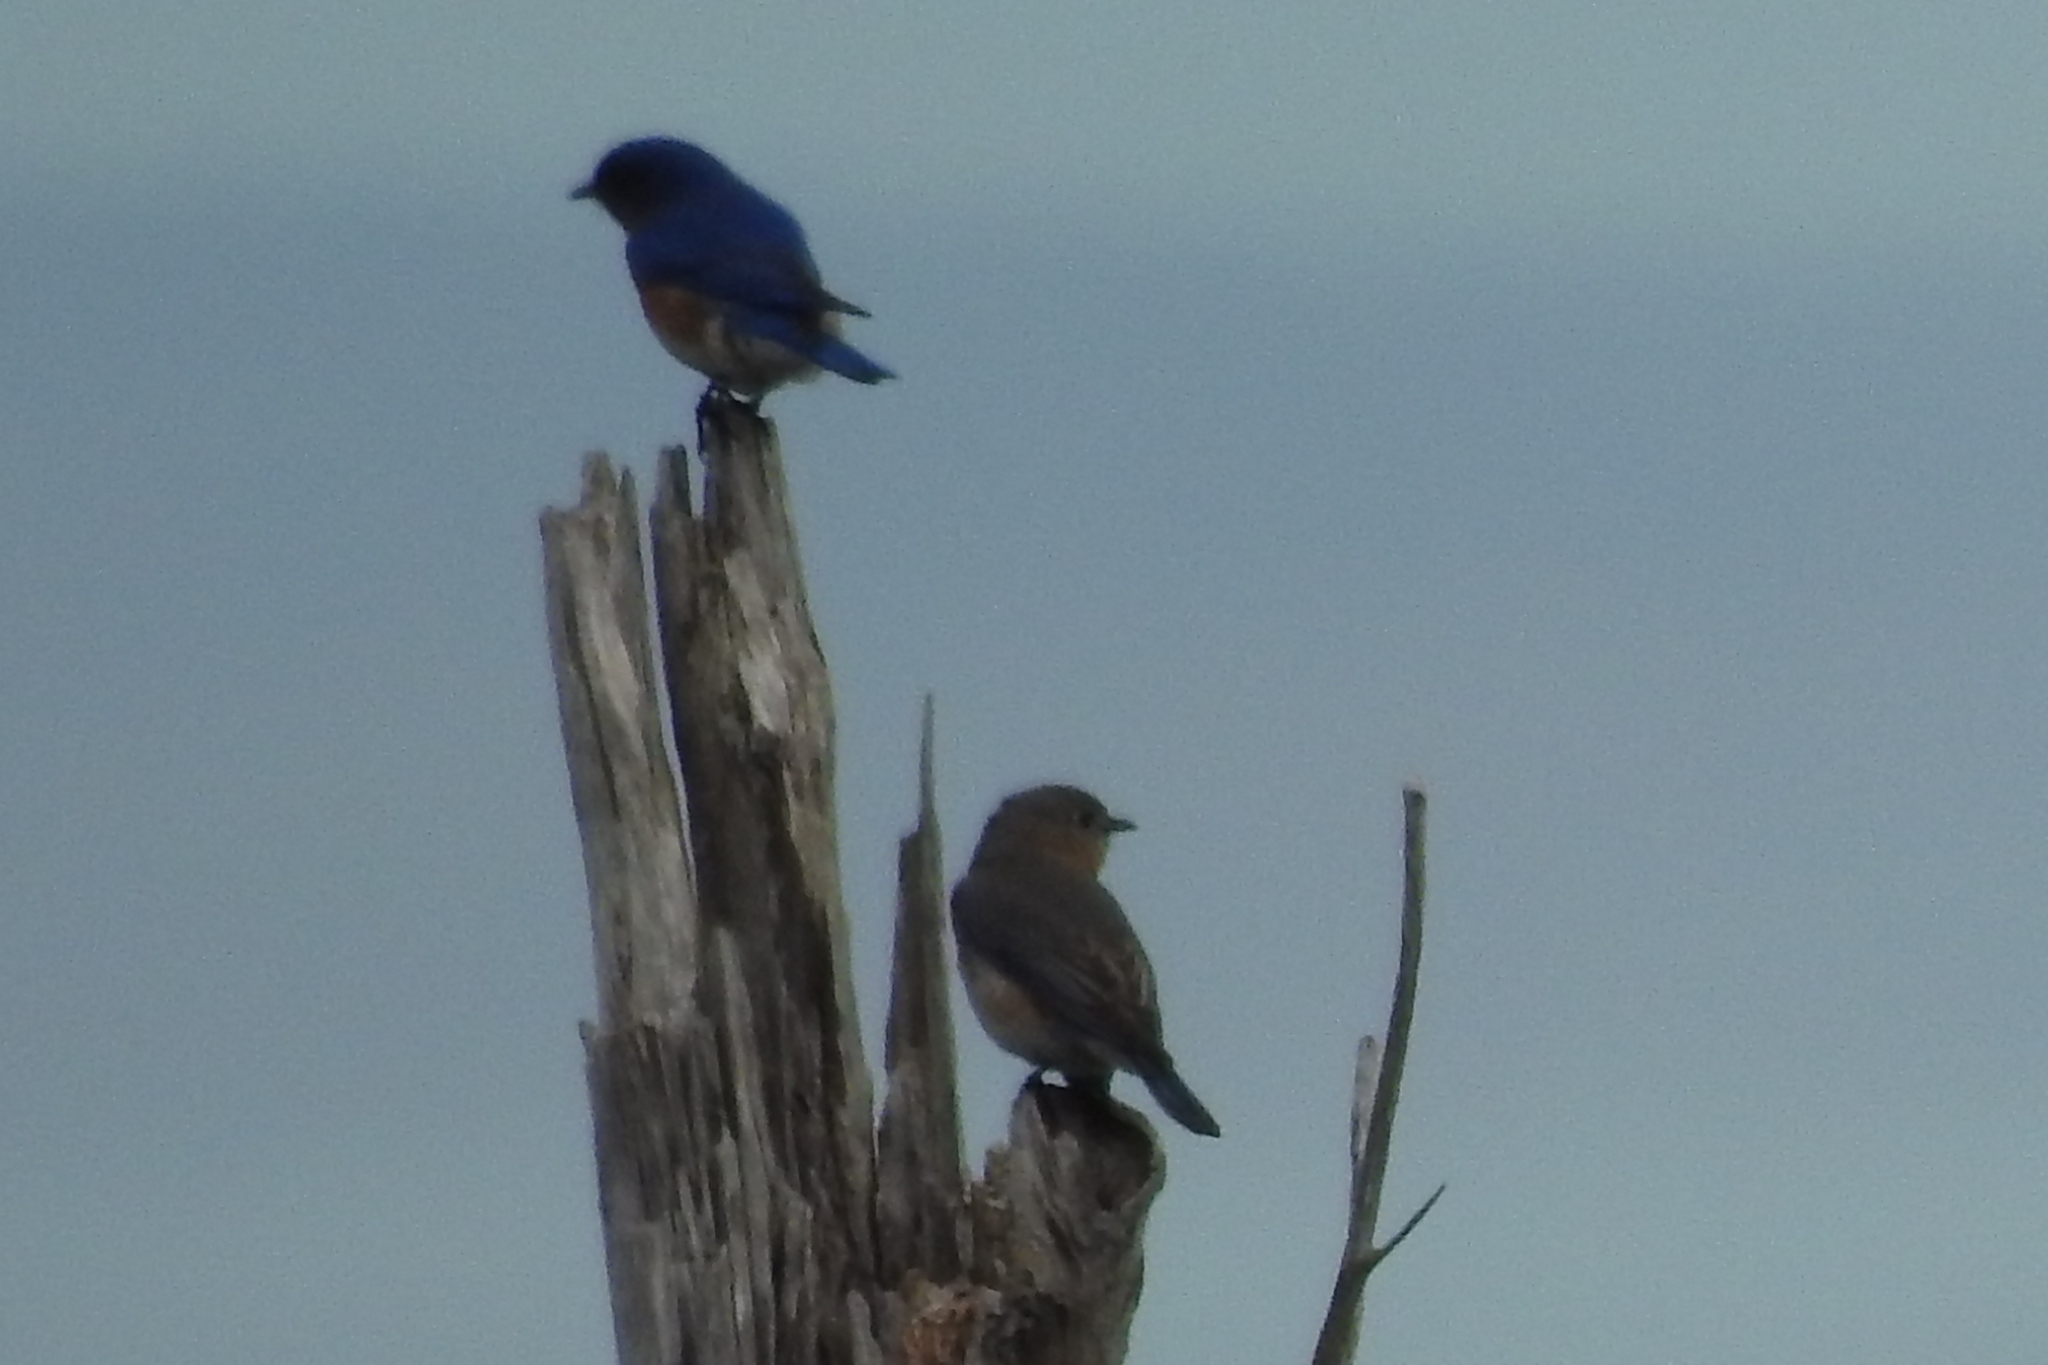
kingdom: Animalia
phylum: Chordata
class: Aves
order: Passeriformes
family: Turdidae
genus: Sialia
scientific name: Sialia sialis
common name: Eastern bluebird
